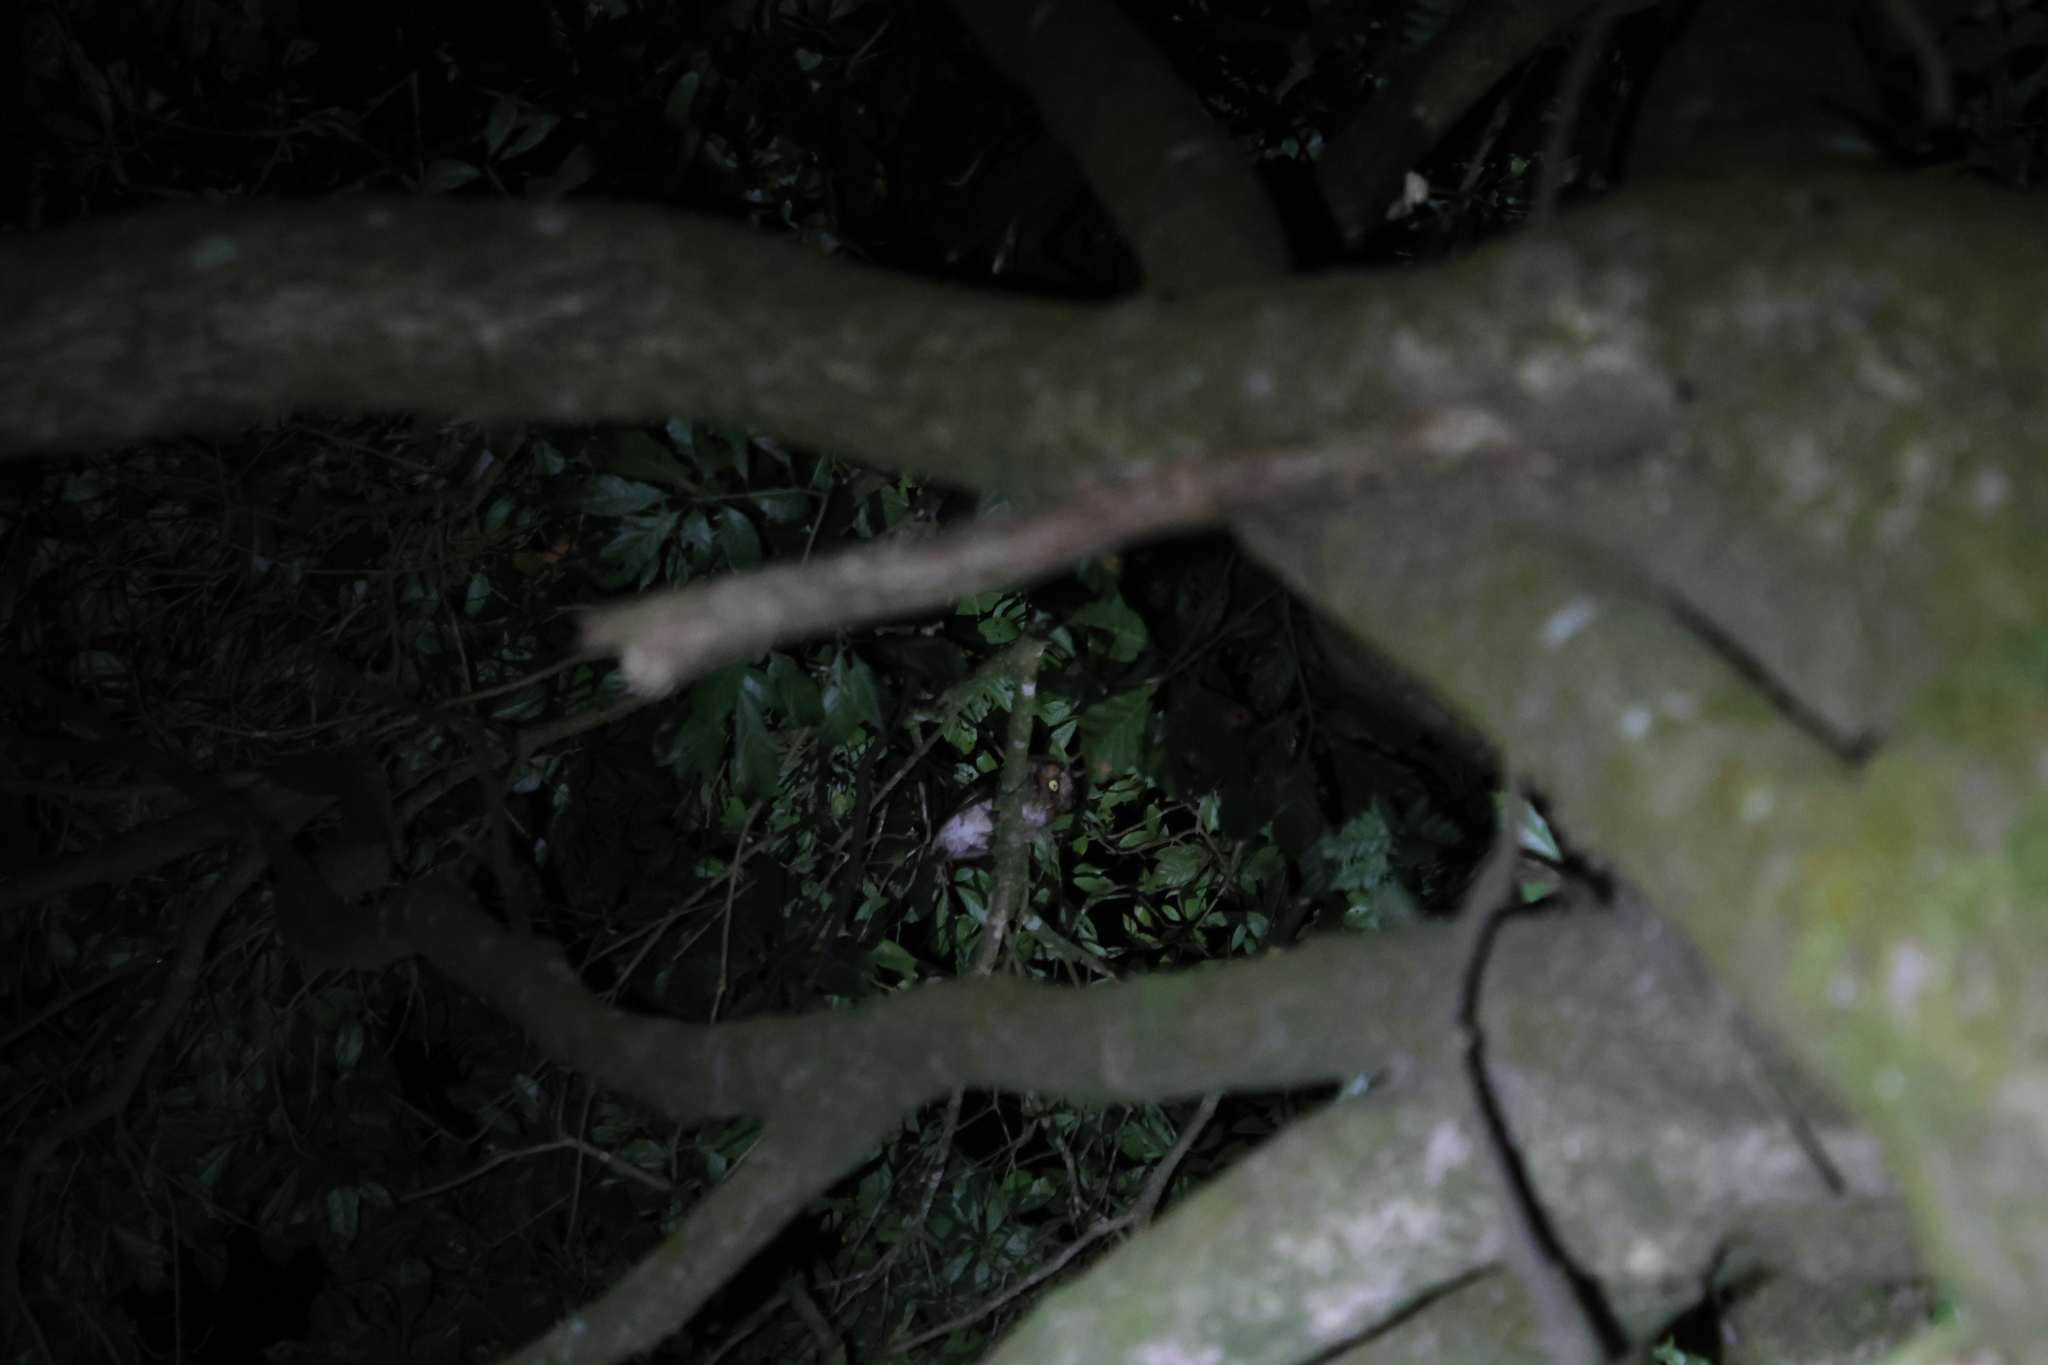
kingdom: Animalia
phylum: Chordata
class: Aves
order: Strigiformes
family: Strigidae
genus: Otus
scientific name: Otus spilocephalus
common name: Mountain scops owl
